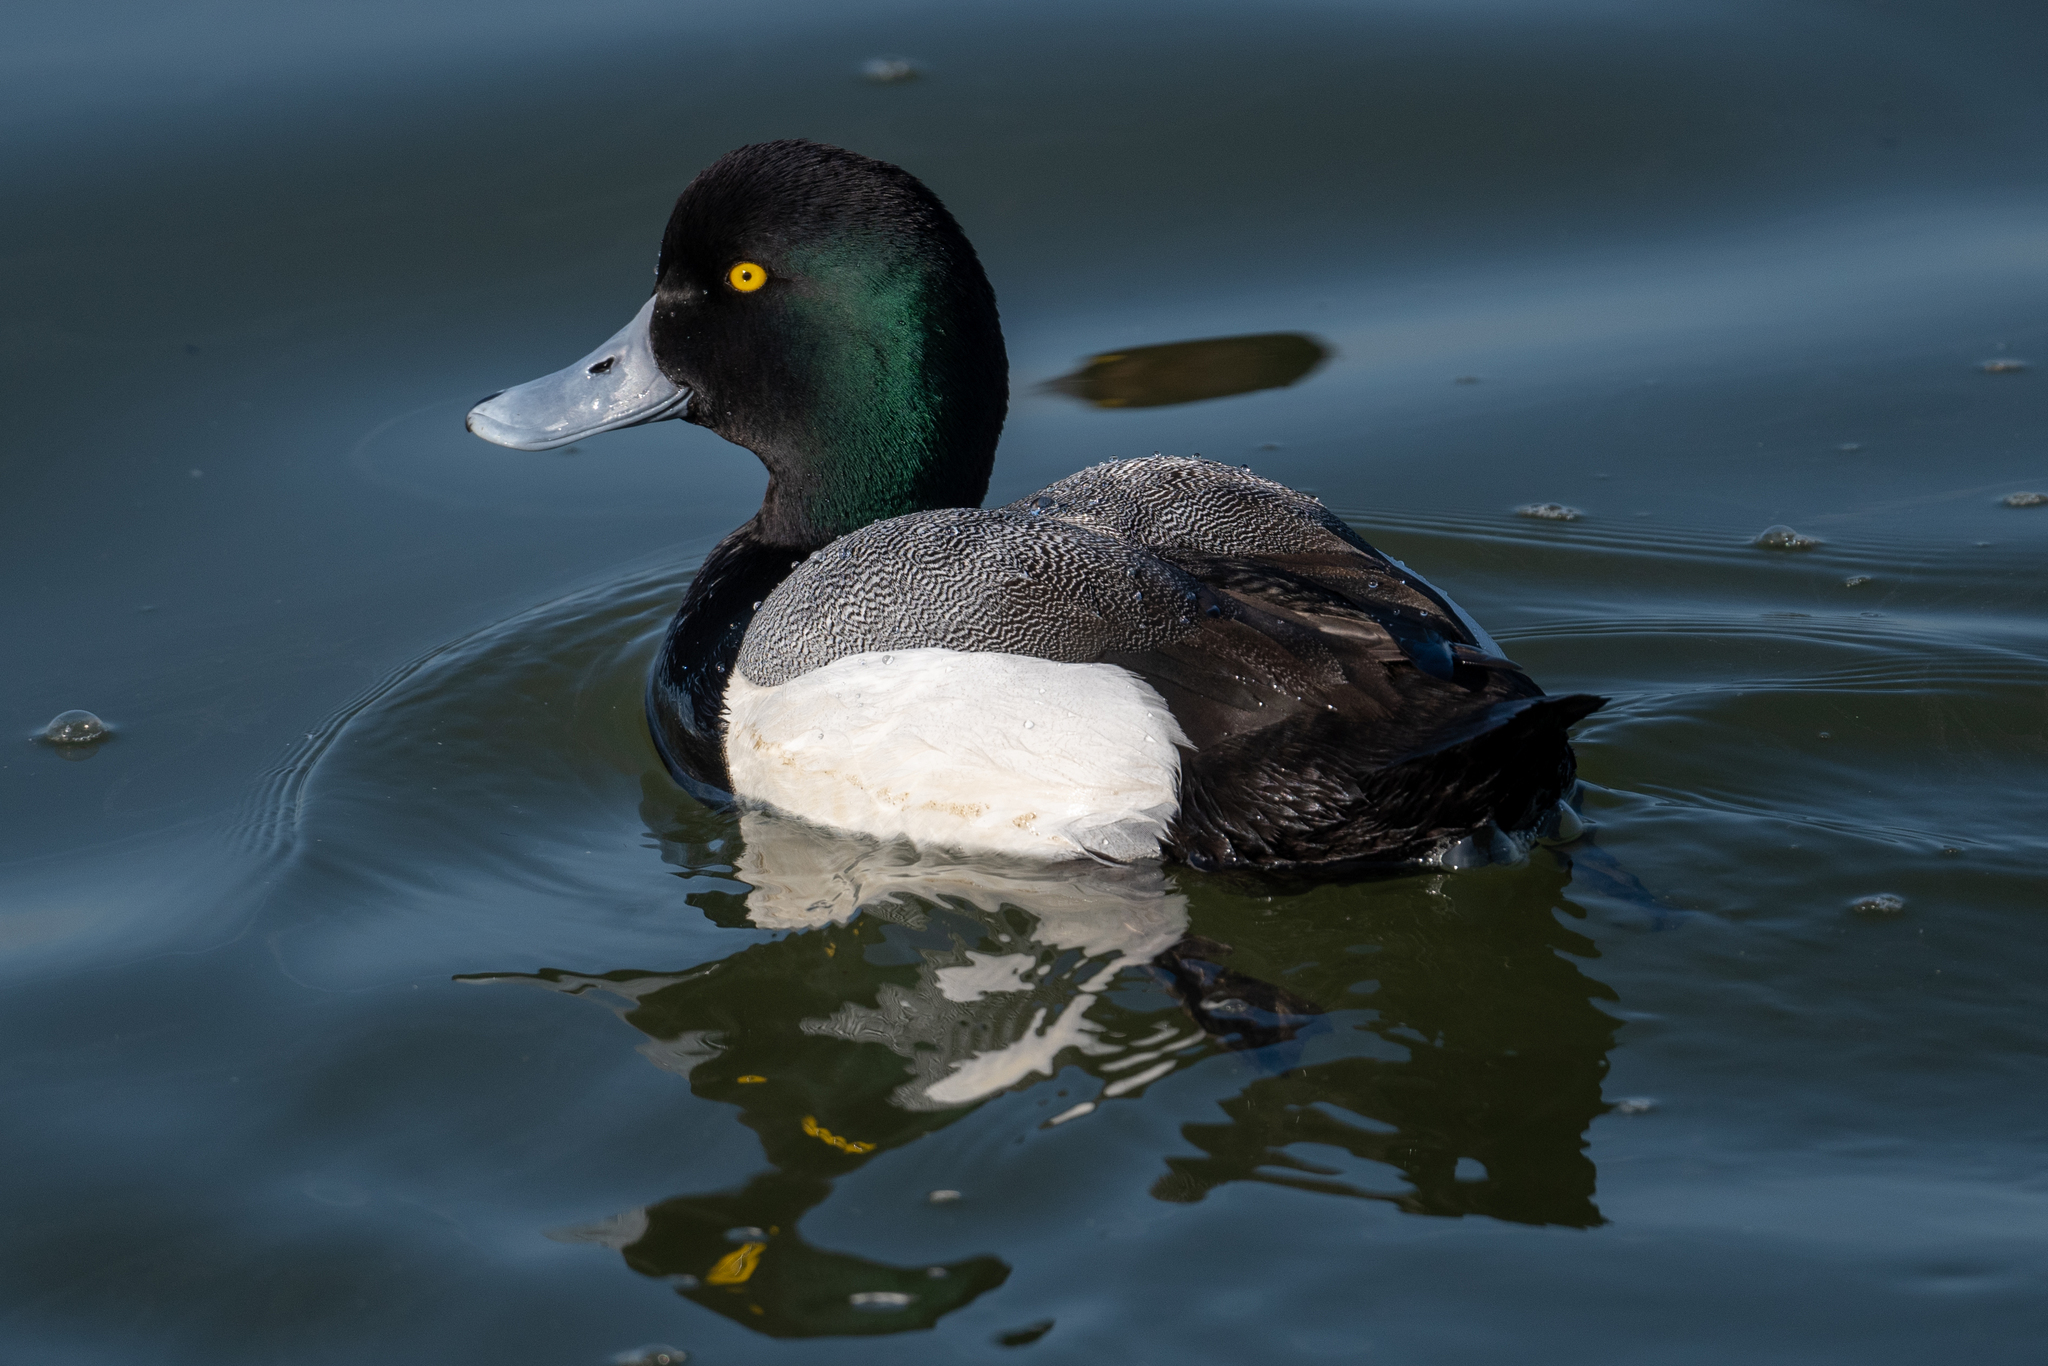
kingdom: Animalia
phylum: Chordata
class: Aves
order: Anseriformes
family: Anatidae
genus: Aythya
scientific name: Aythya marila
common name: Greater scaup
